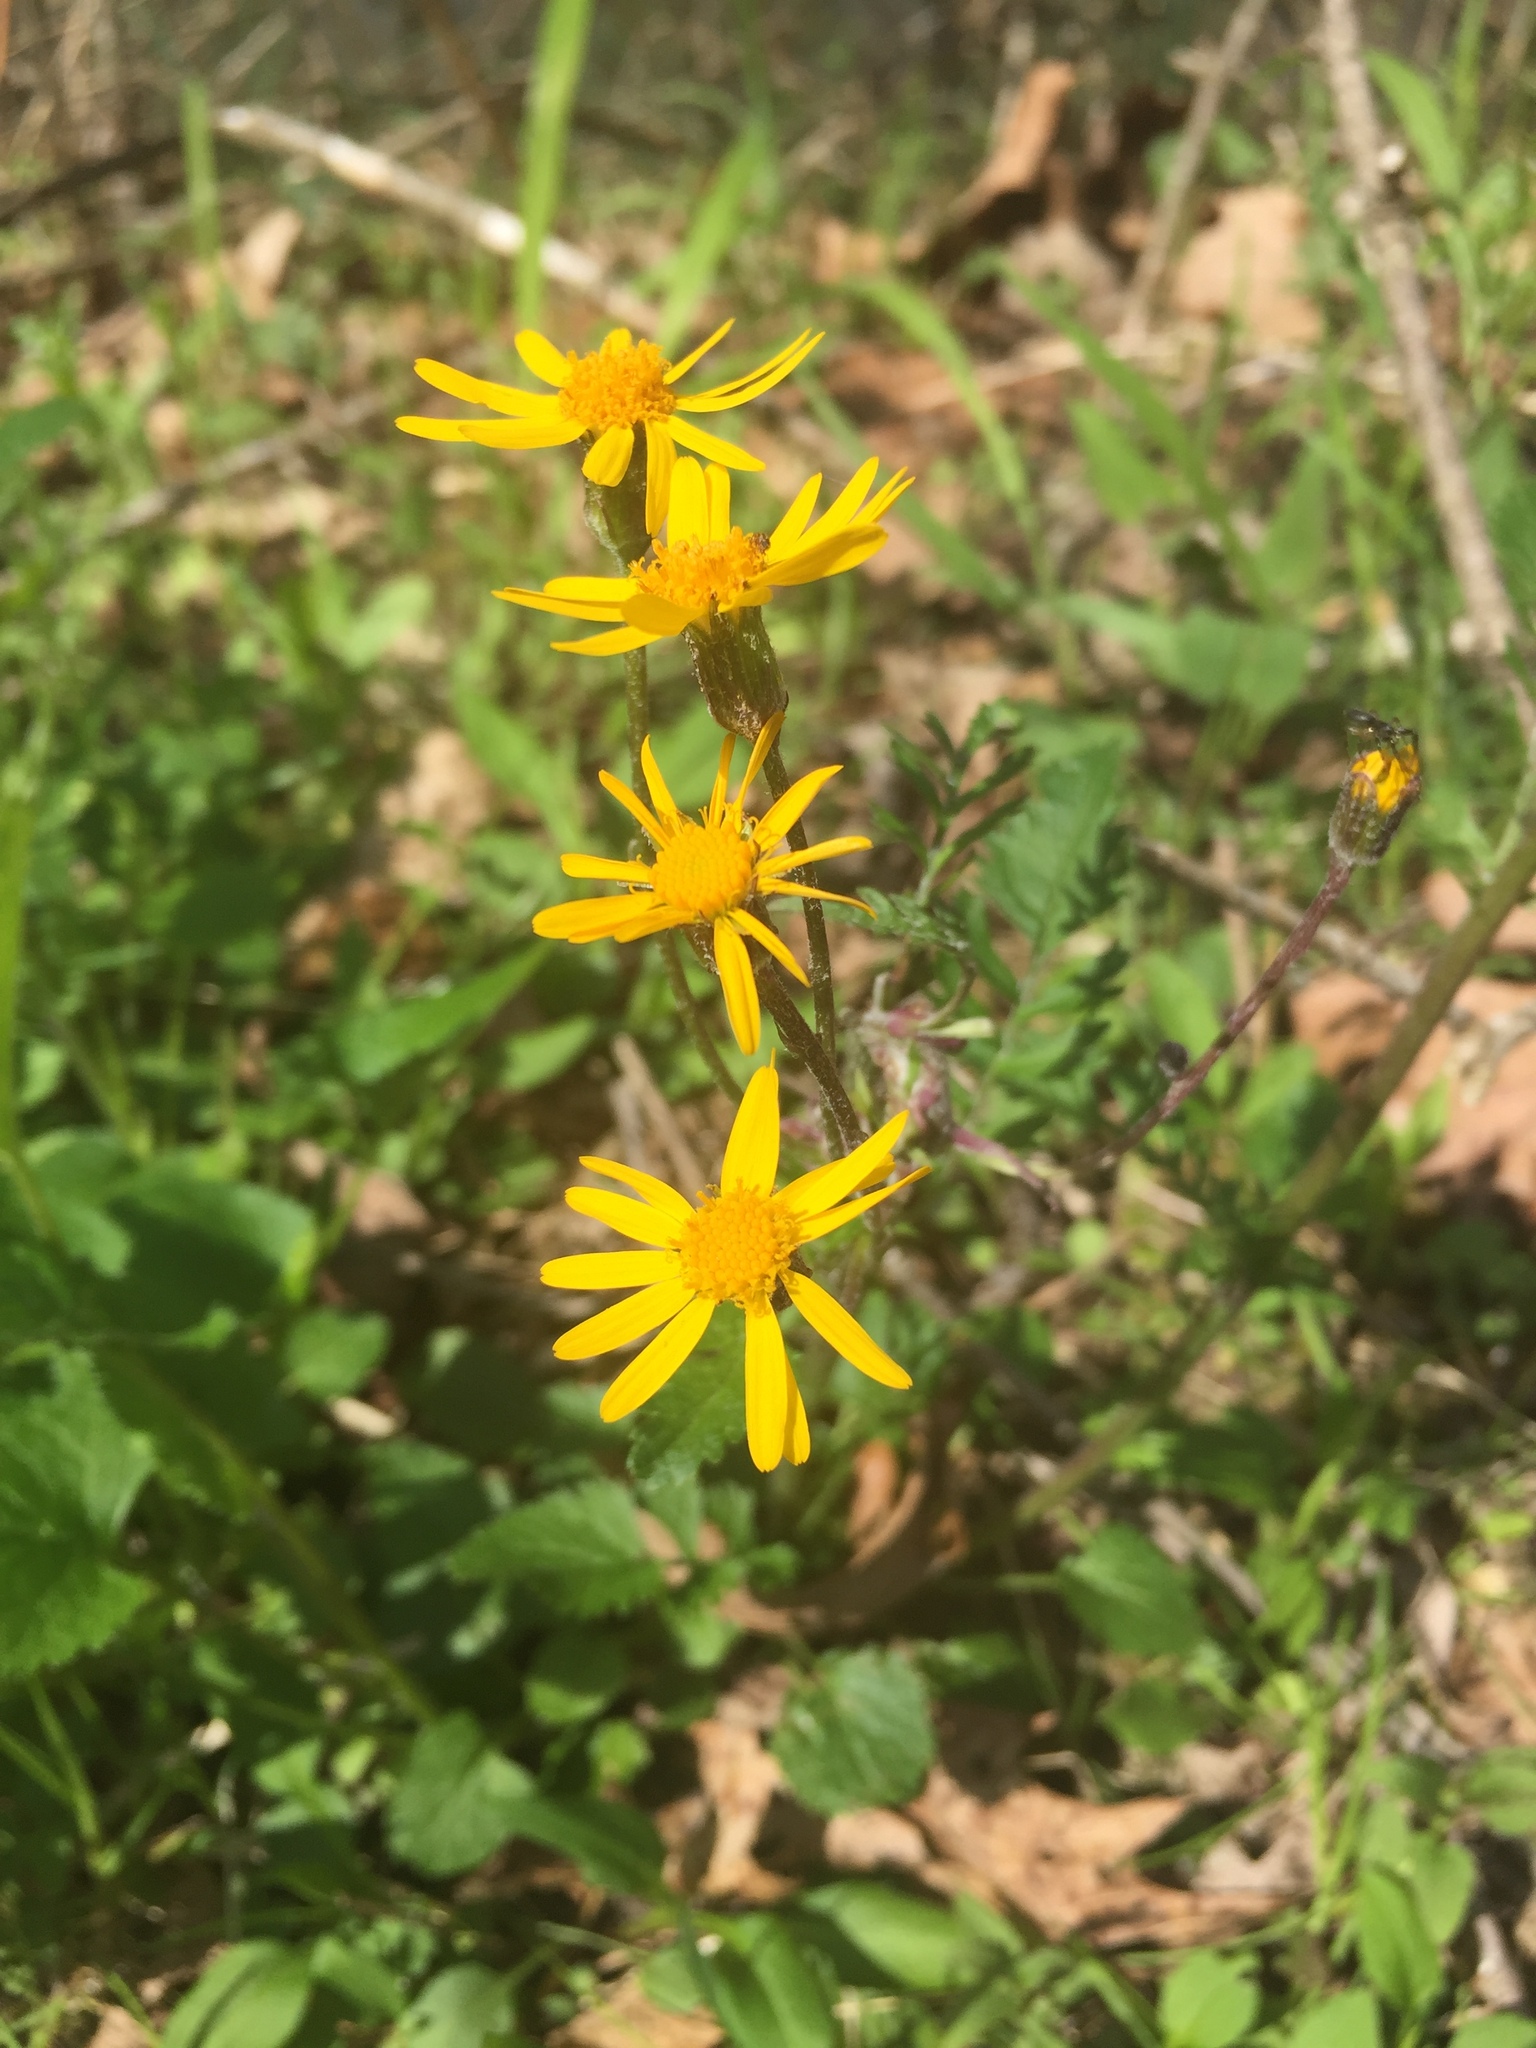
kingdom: Plantae
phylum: Tracheophyta
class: Magnoliopsida
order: Asterales
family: Asteraceae
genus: Packera
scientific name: Packera aurea
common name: Golden groundsel
